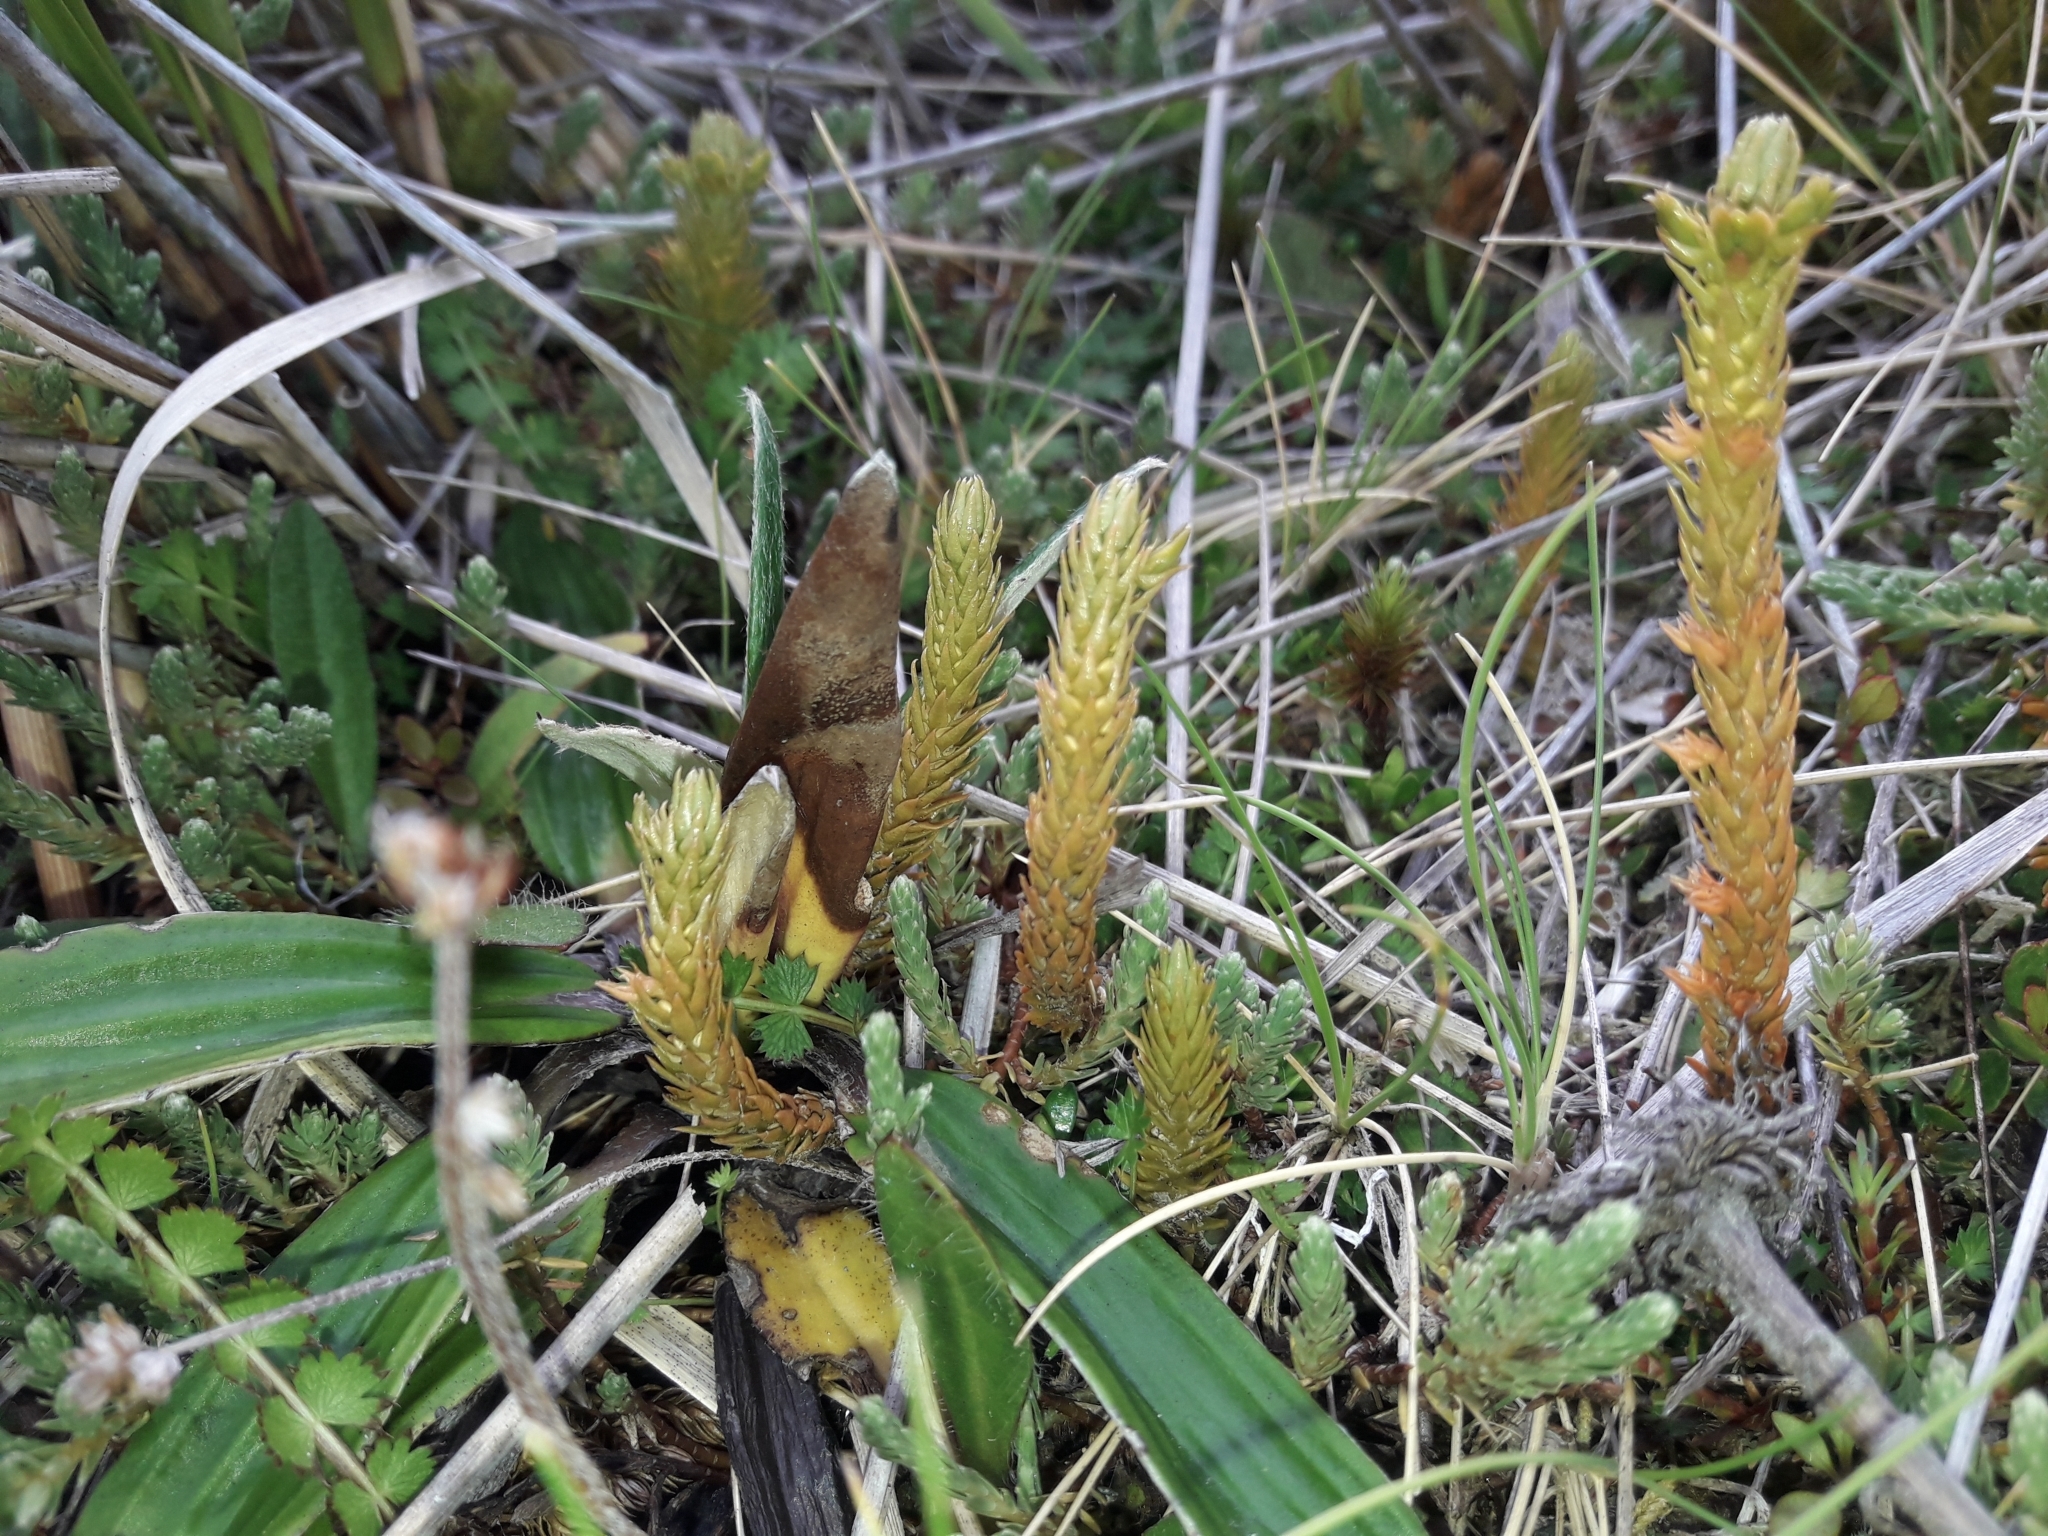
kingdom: Plantae
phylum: Tracheophyta
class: Lycopodiopsida
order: Lycopodiales
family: Lycopodiaceae
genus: Huperzia
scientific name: Huperzia australiana
